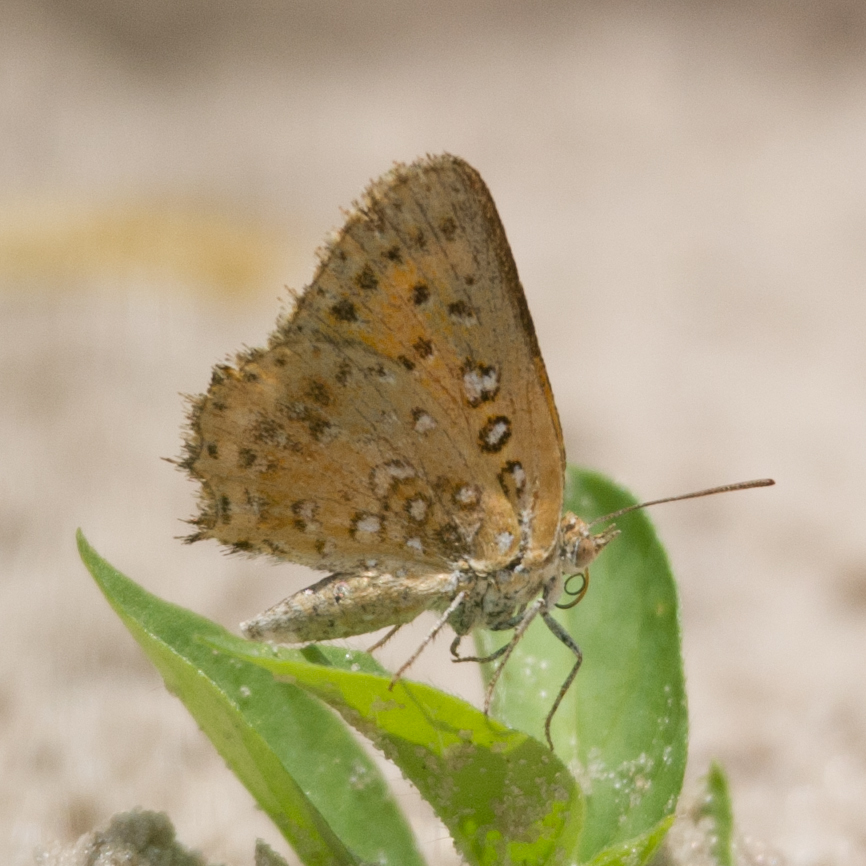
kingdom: Animalia
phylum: Arthropoda
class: Insecta
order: Lepidoptera
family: Lycaenidae
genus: Aloeides
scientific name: Aloeides damarensis
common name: Damara russet
